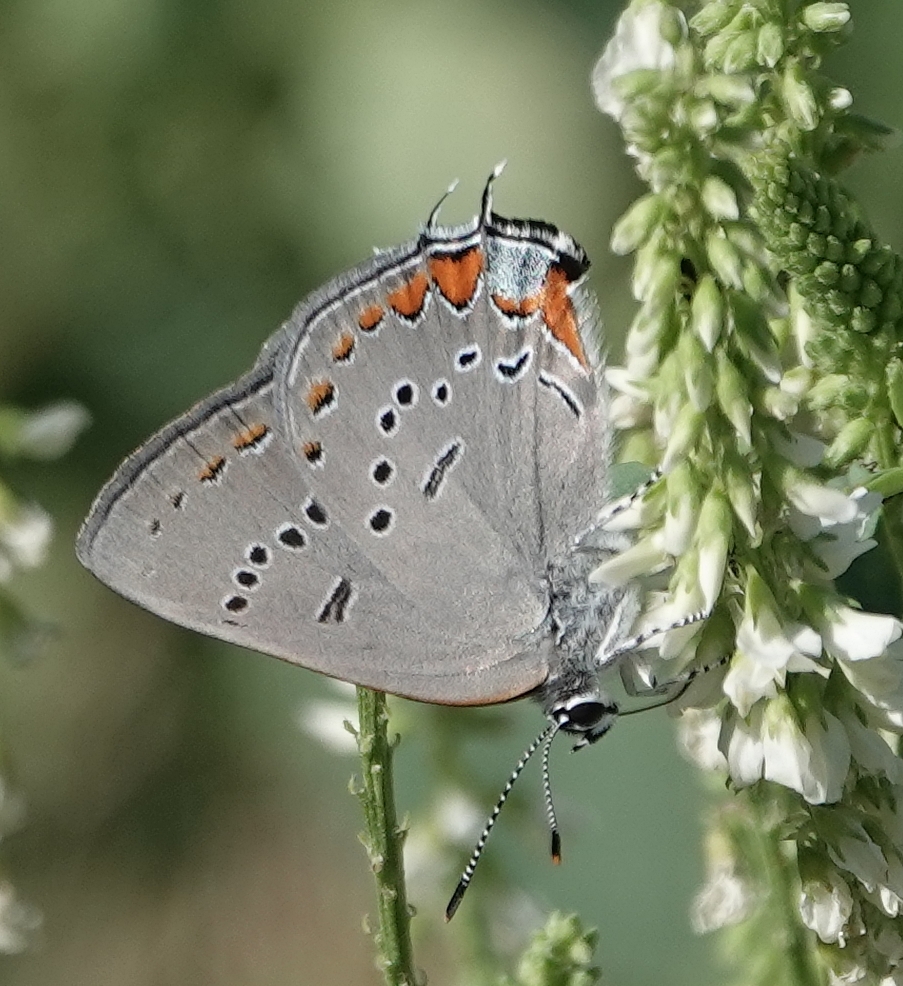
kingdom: Animalia
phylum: Arthropoda
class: Insecta
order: Lepidoptera
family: Lycaenidae
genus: Strymon
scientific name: Strymon acadica
